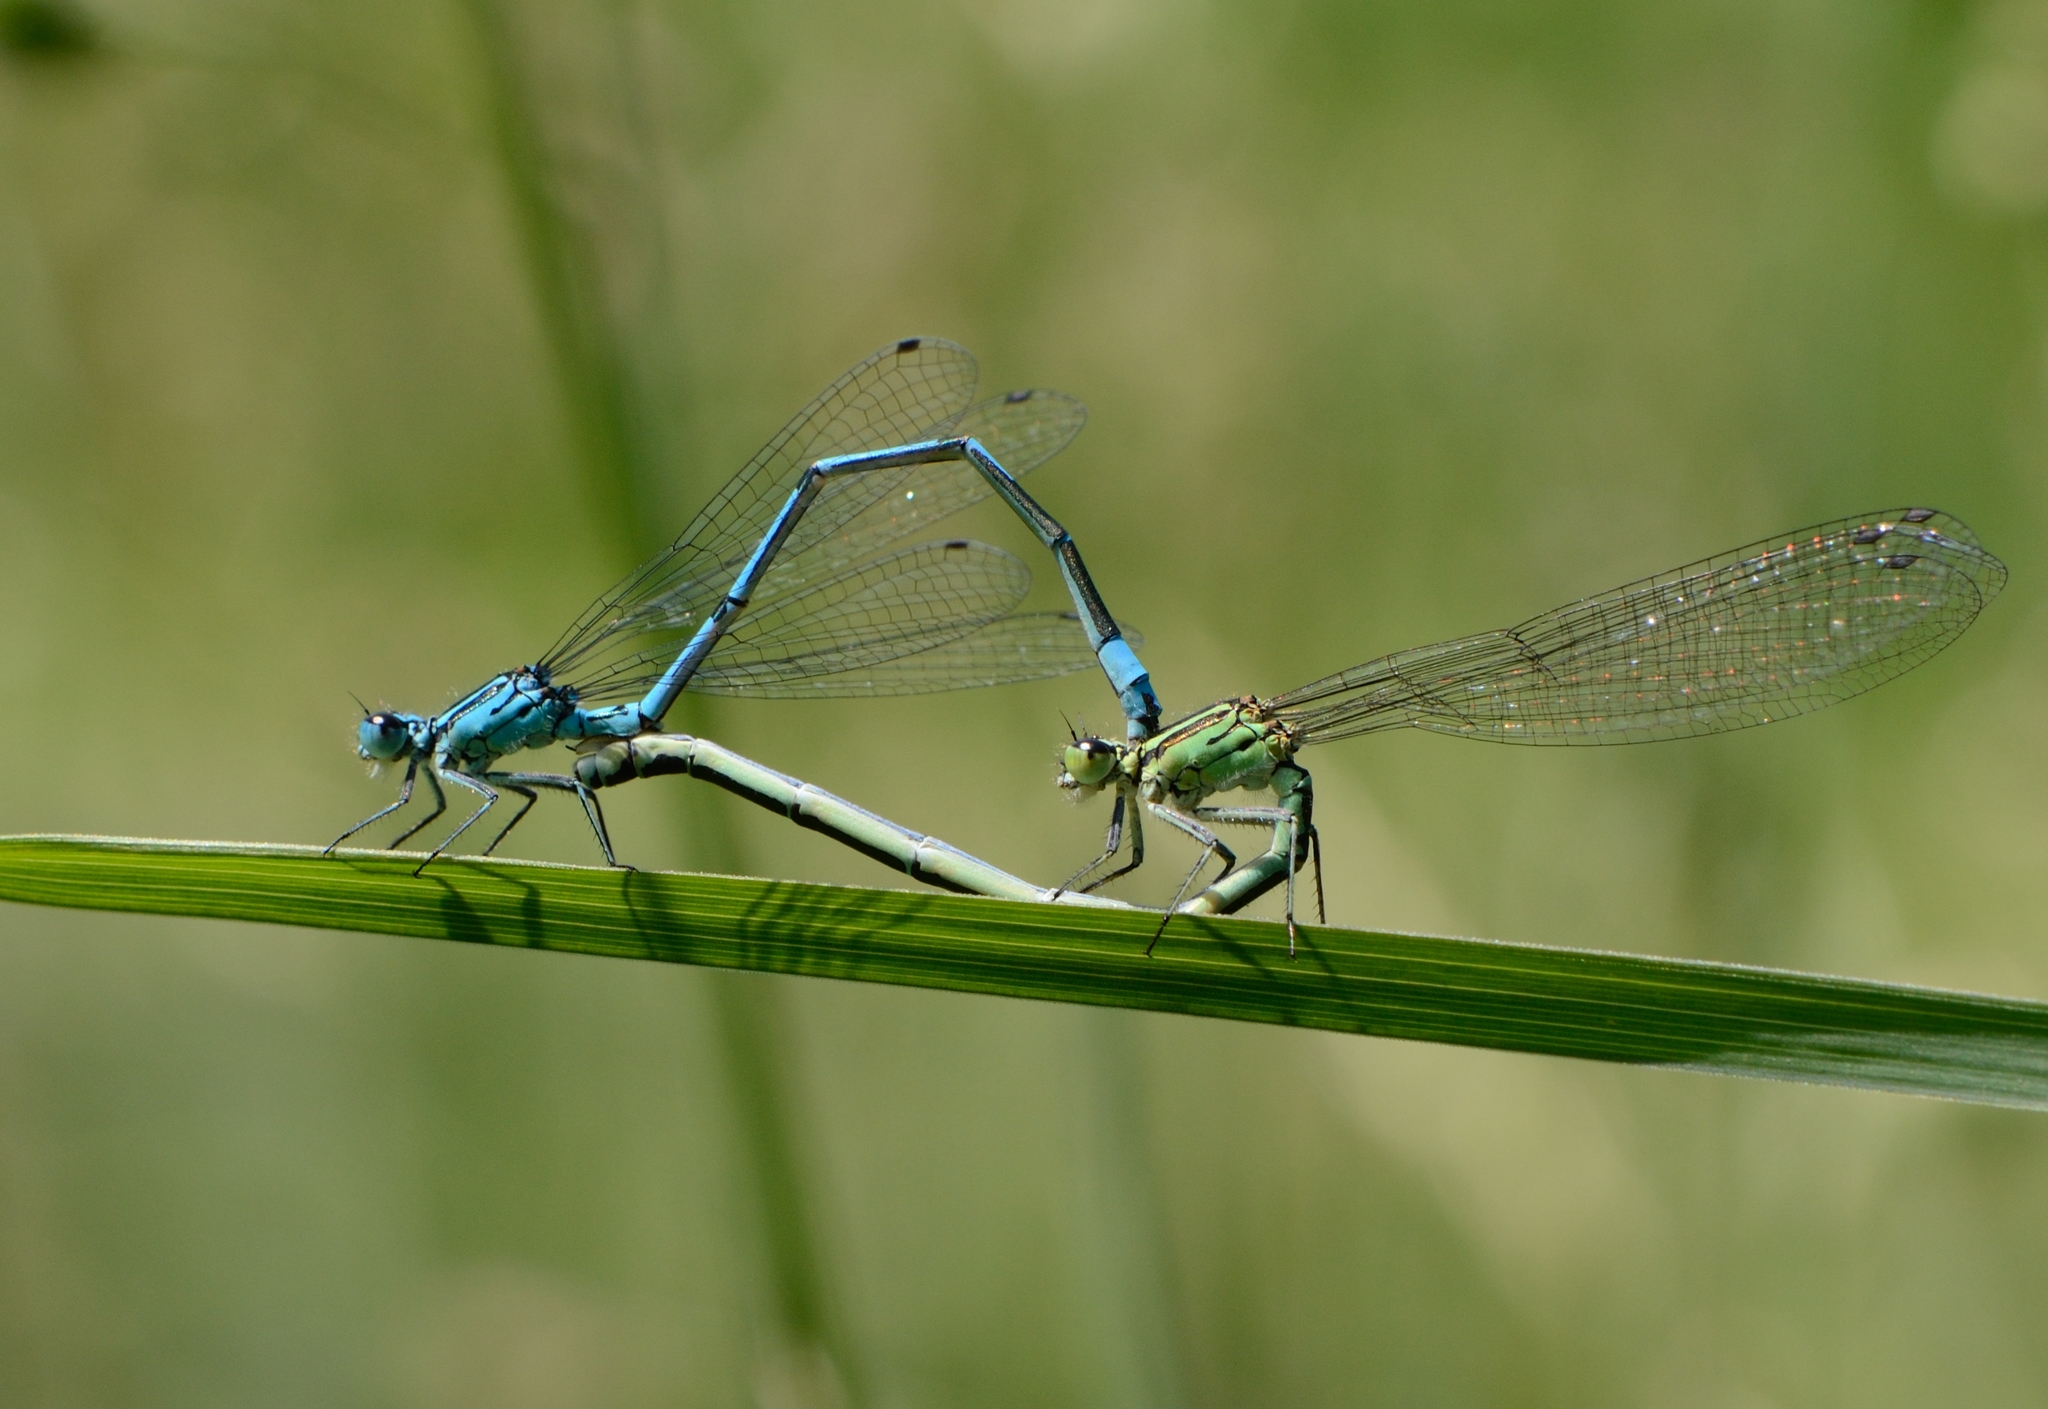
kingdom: Animalia
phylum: Arthropoda
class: Insecta
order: Odonata
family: Coenagrionidae
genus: Coenagrion
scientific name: Coenagrion puella
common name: Azure damselfly
